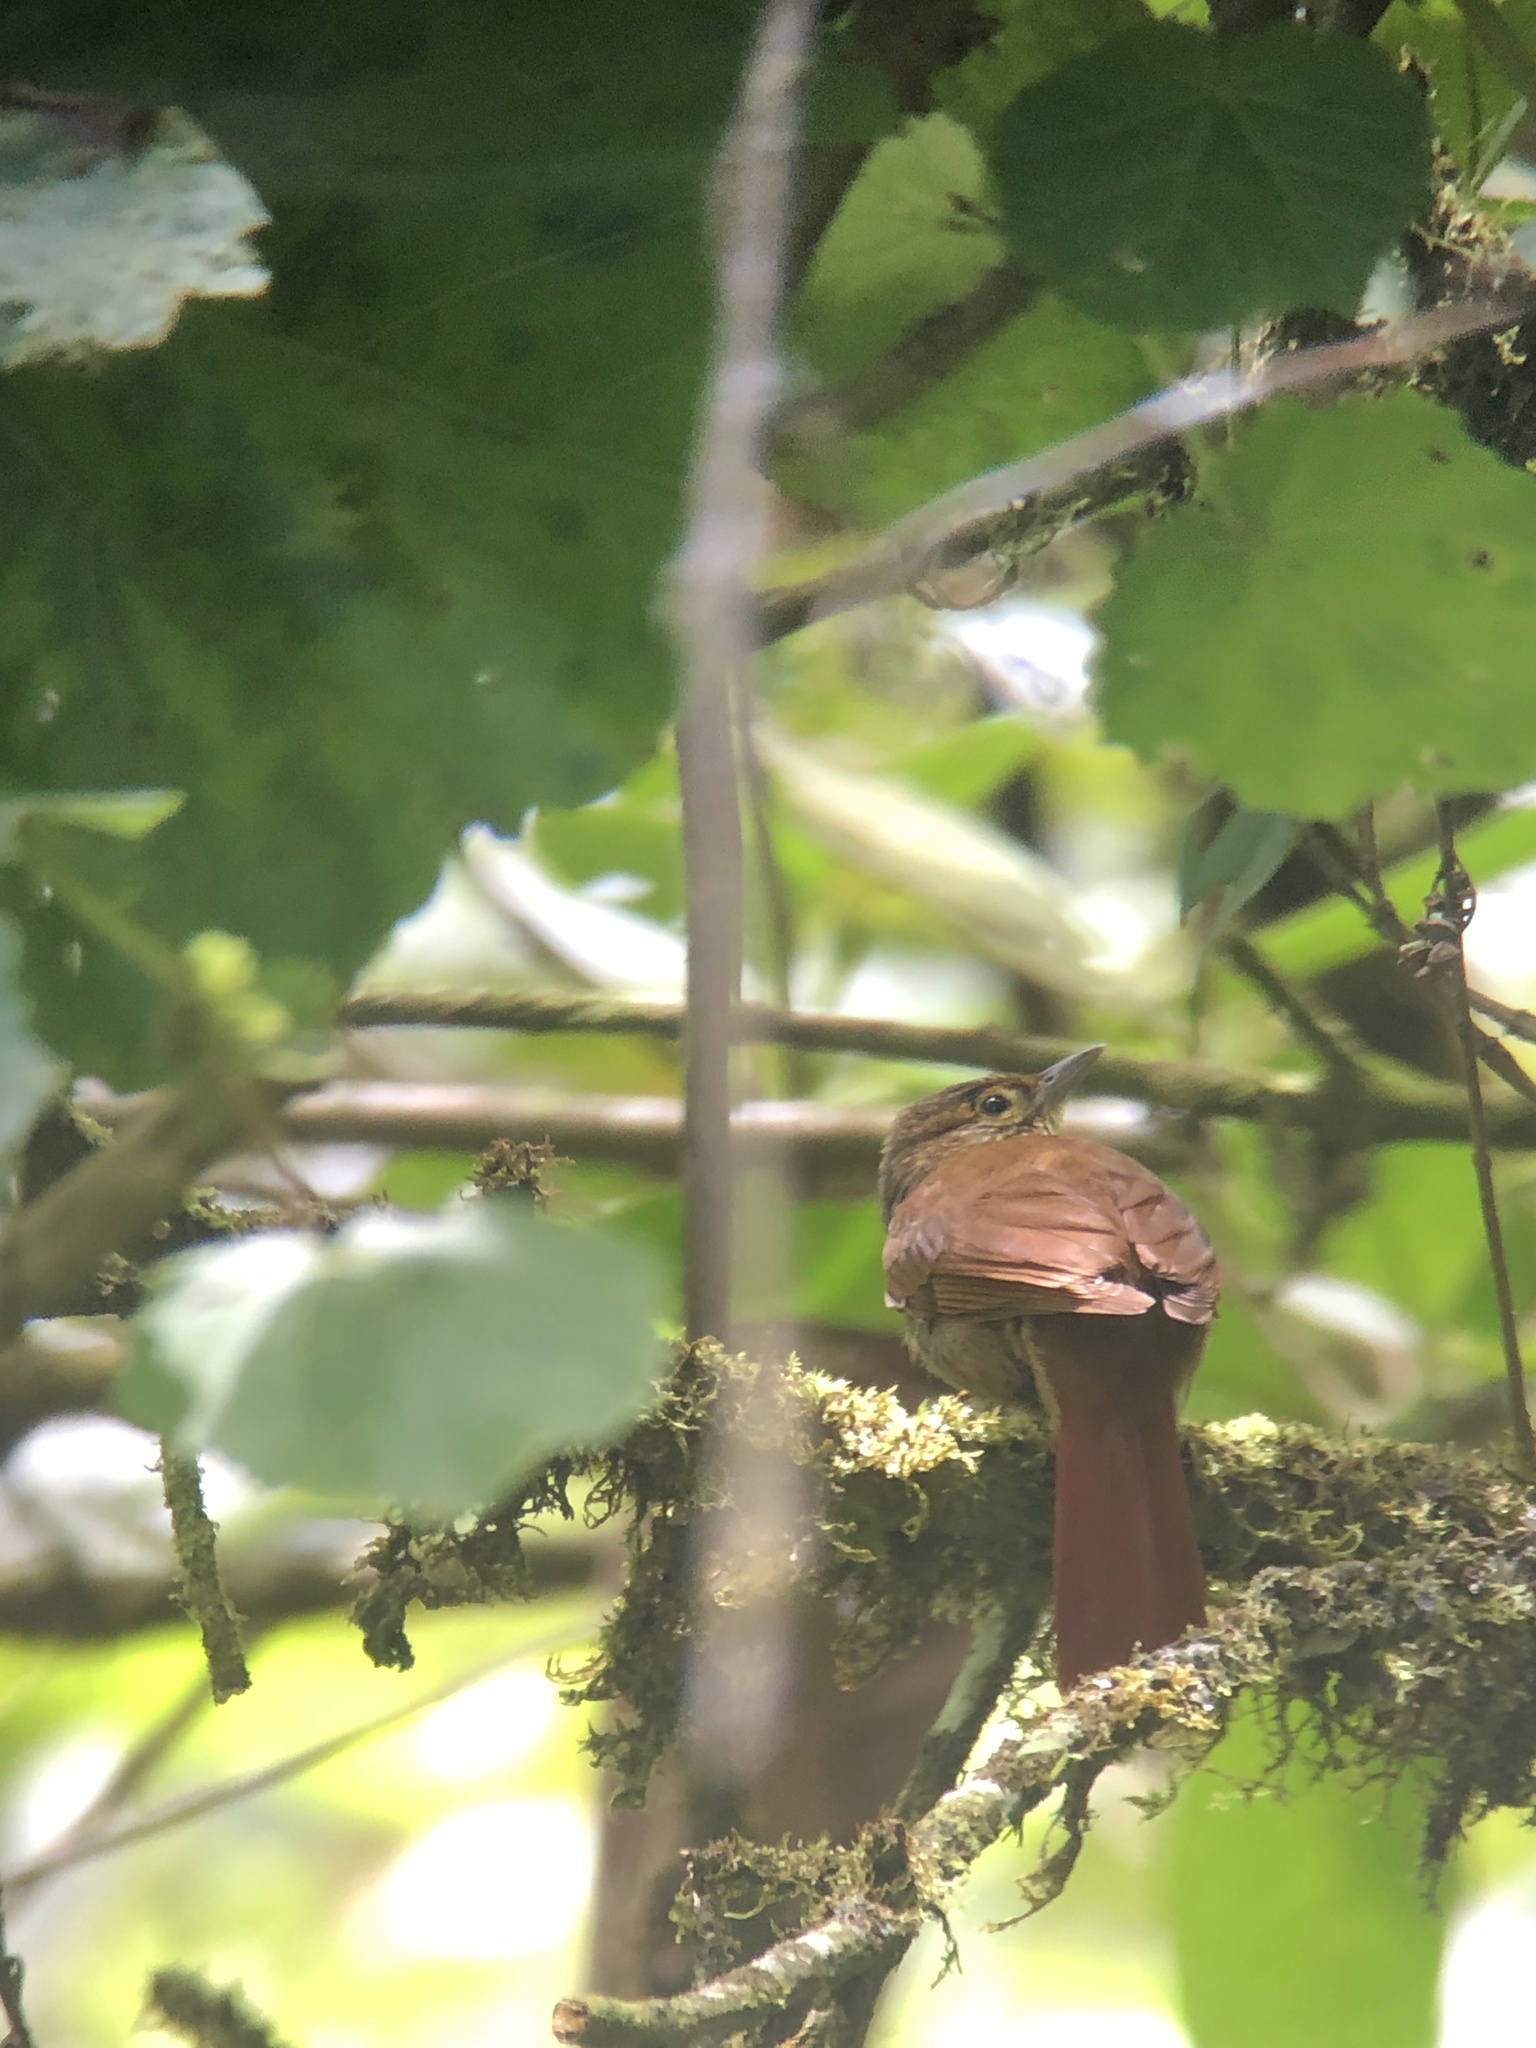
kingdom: Animalia
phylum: Chordata
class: Aves
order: Passeriformes
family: Furnariidae
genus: Anabacerthia
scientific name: Anabacerthia variegaticeps
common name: Scaly-throated foliage-gleaner
